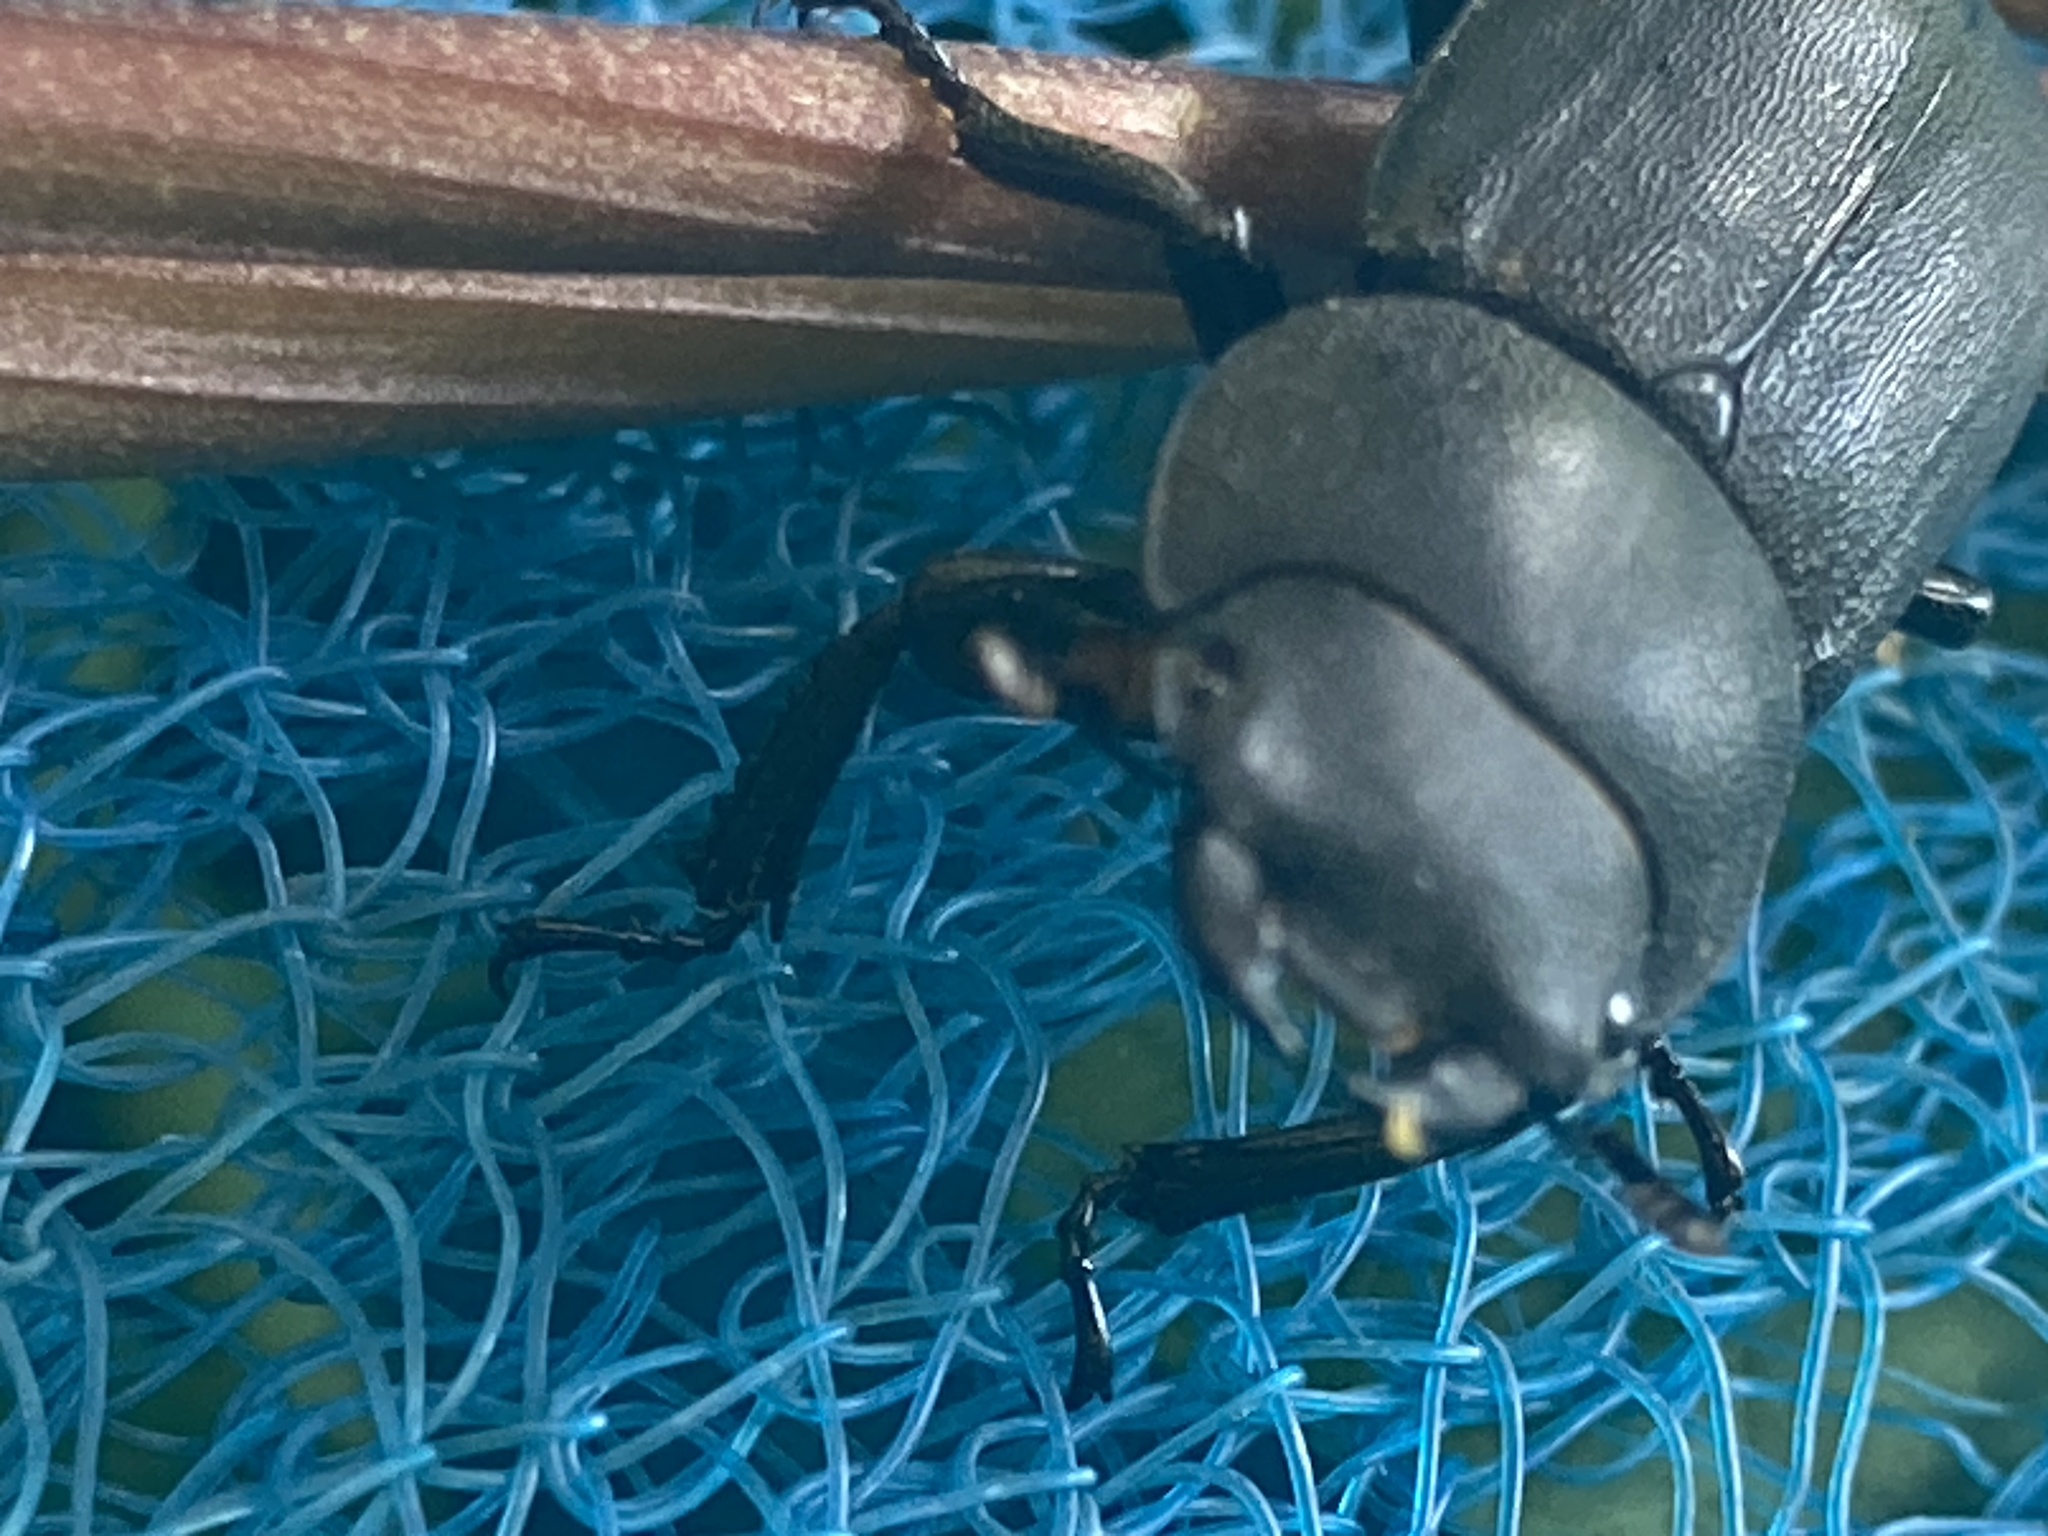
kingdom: Animalia
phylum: Arthropoda
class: Insecta
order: Coleoptera
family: Lucanidae
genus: Dorcus
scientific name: Dorcus parallelipipedus
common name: Lesser stag beetle
